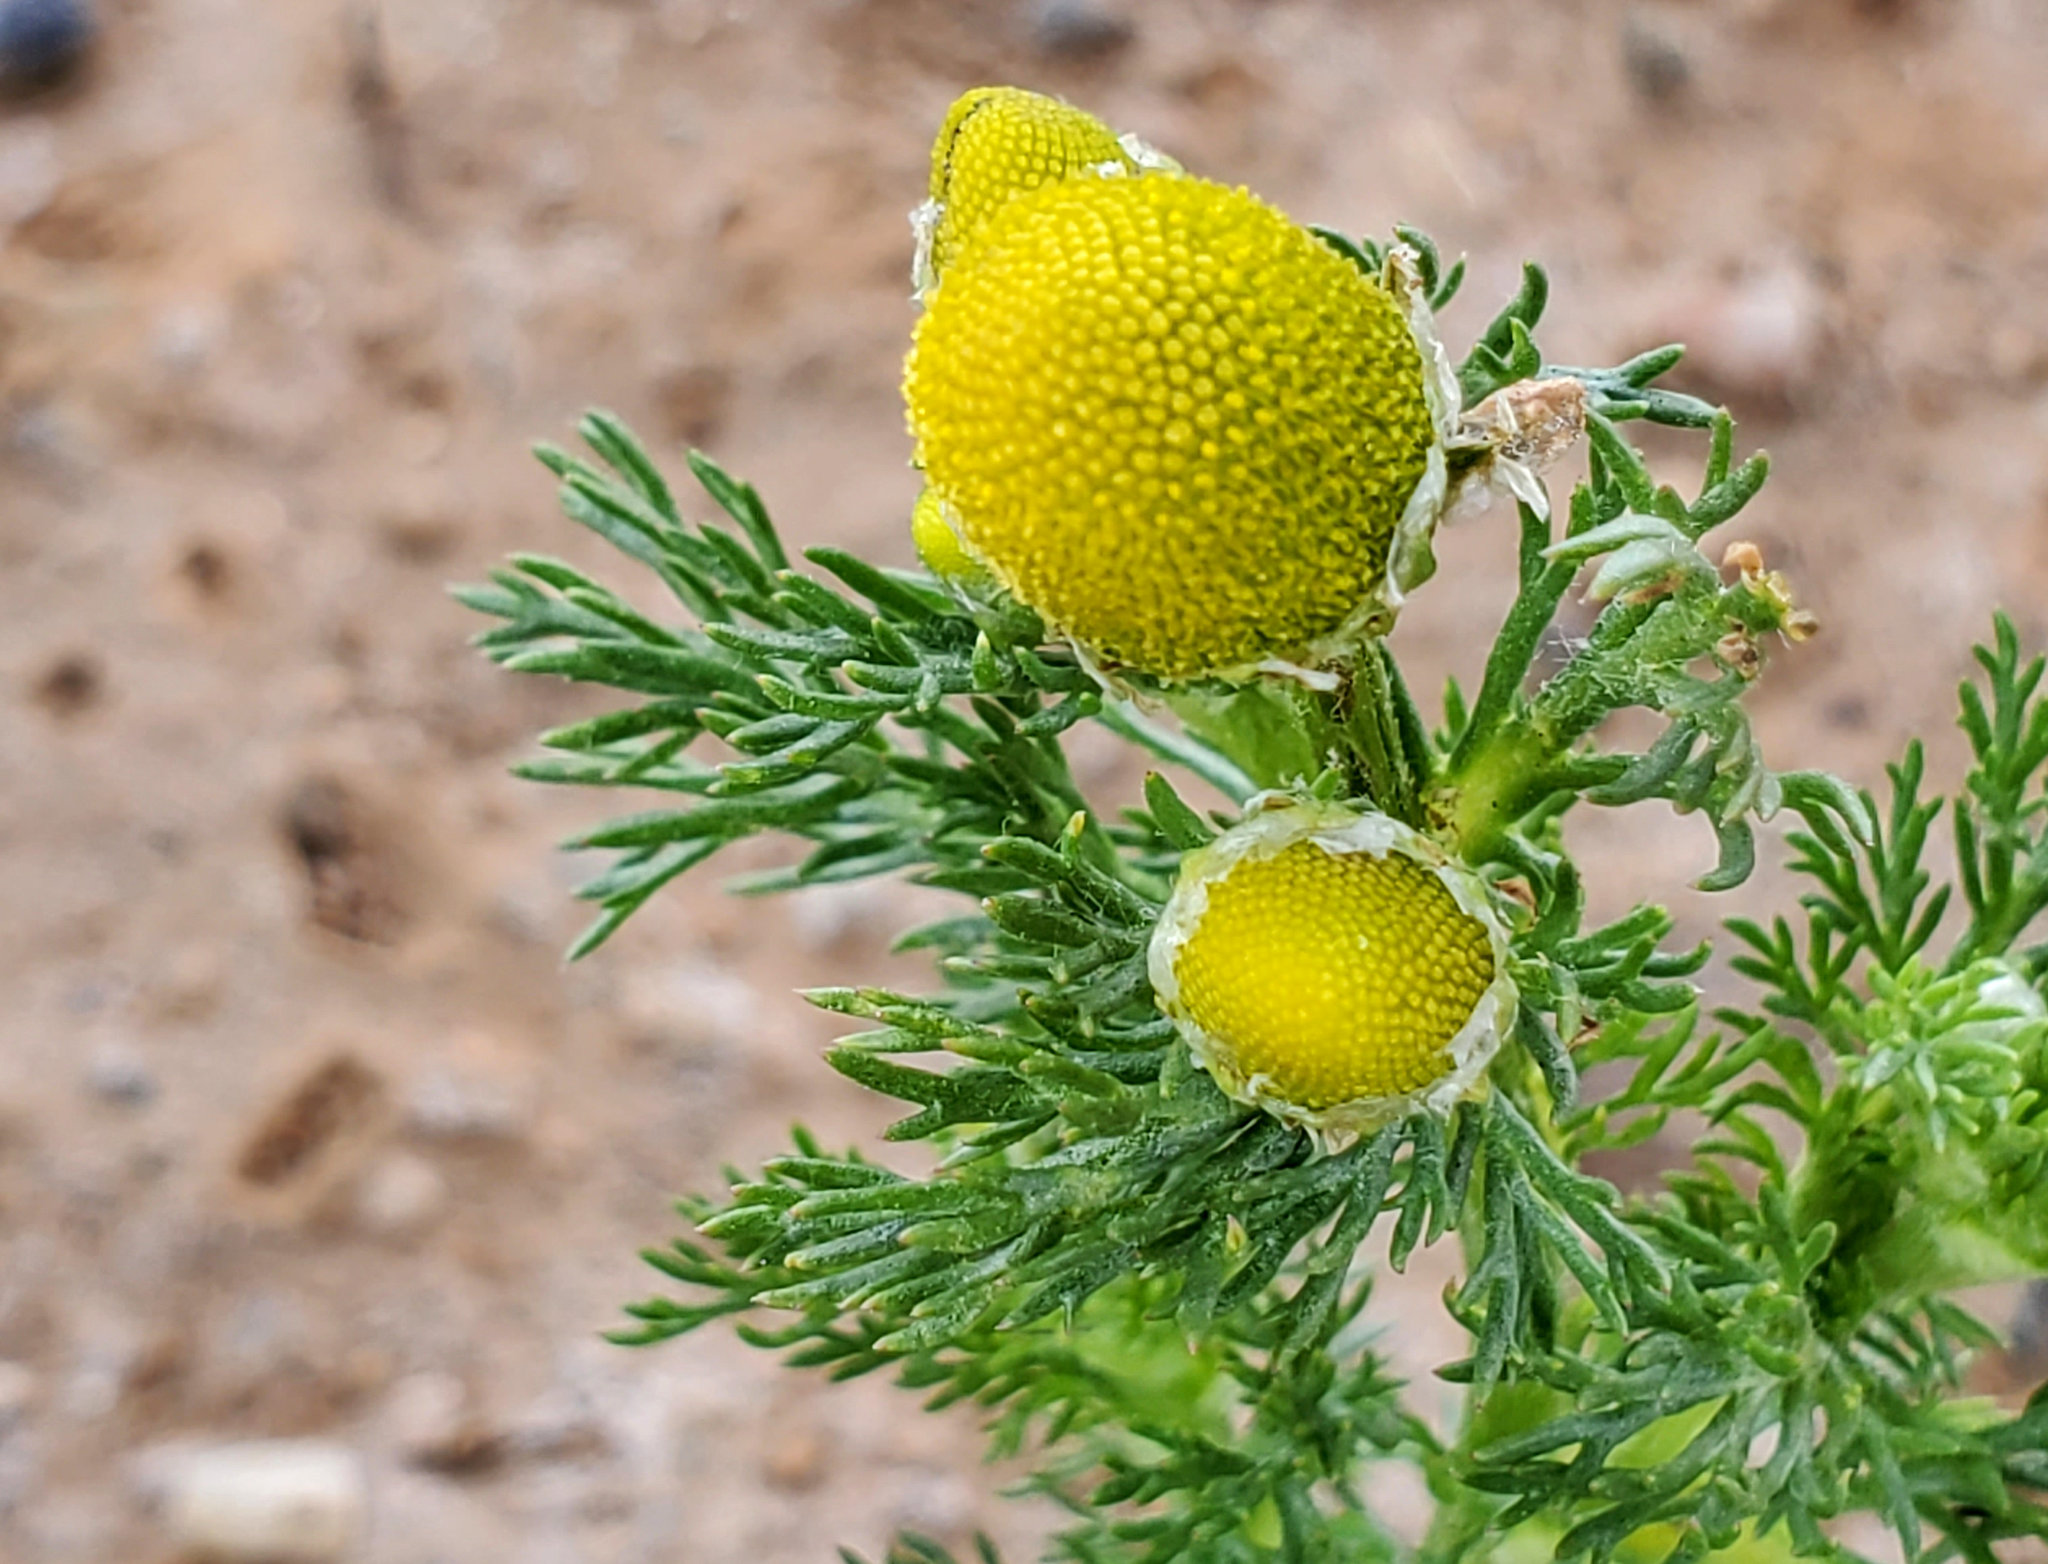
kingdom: Plantae
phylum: Tracheophyta
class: Magnoliopsida
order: Asterales
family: Asteraceae
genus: Matricaria
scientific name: Matricaria discoidea
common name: Disc mayweed
